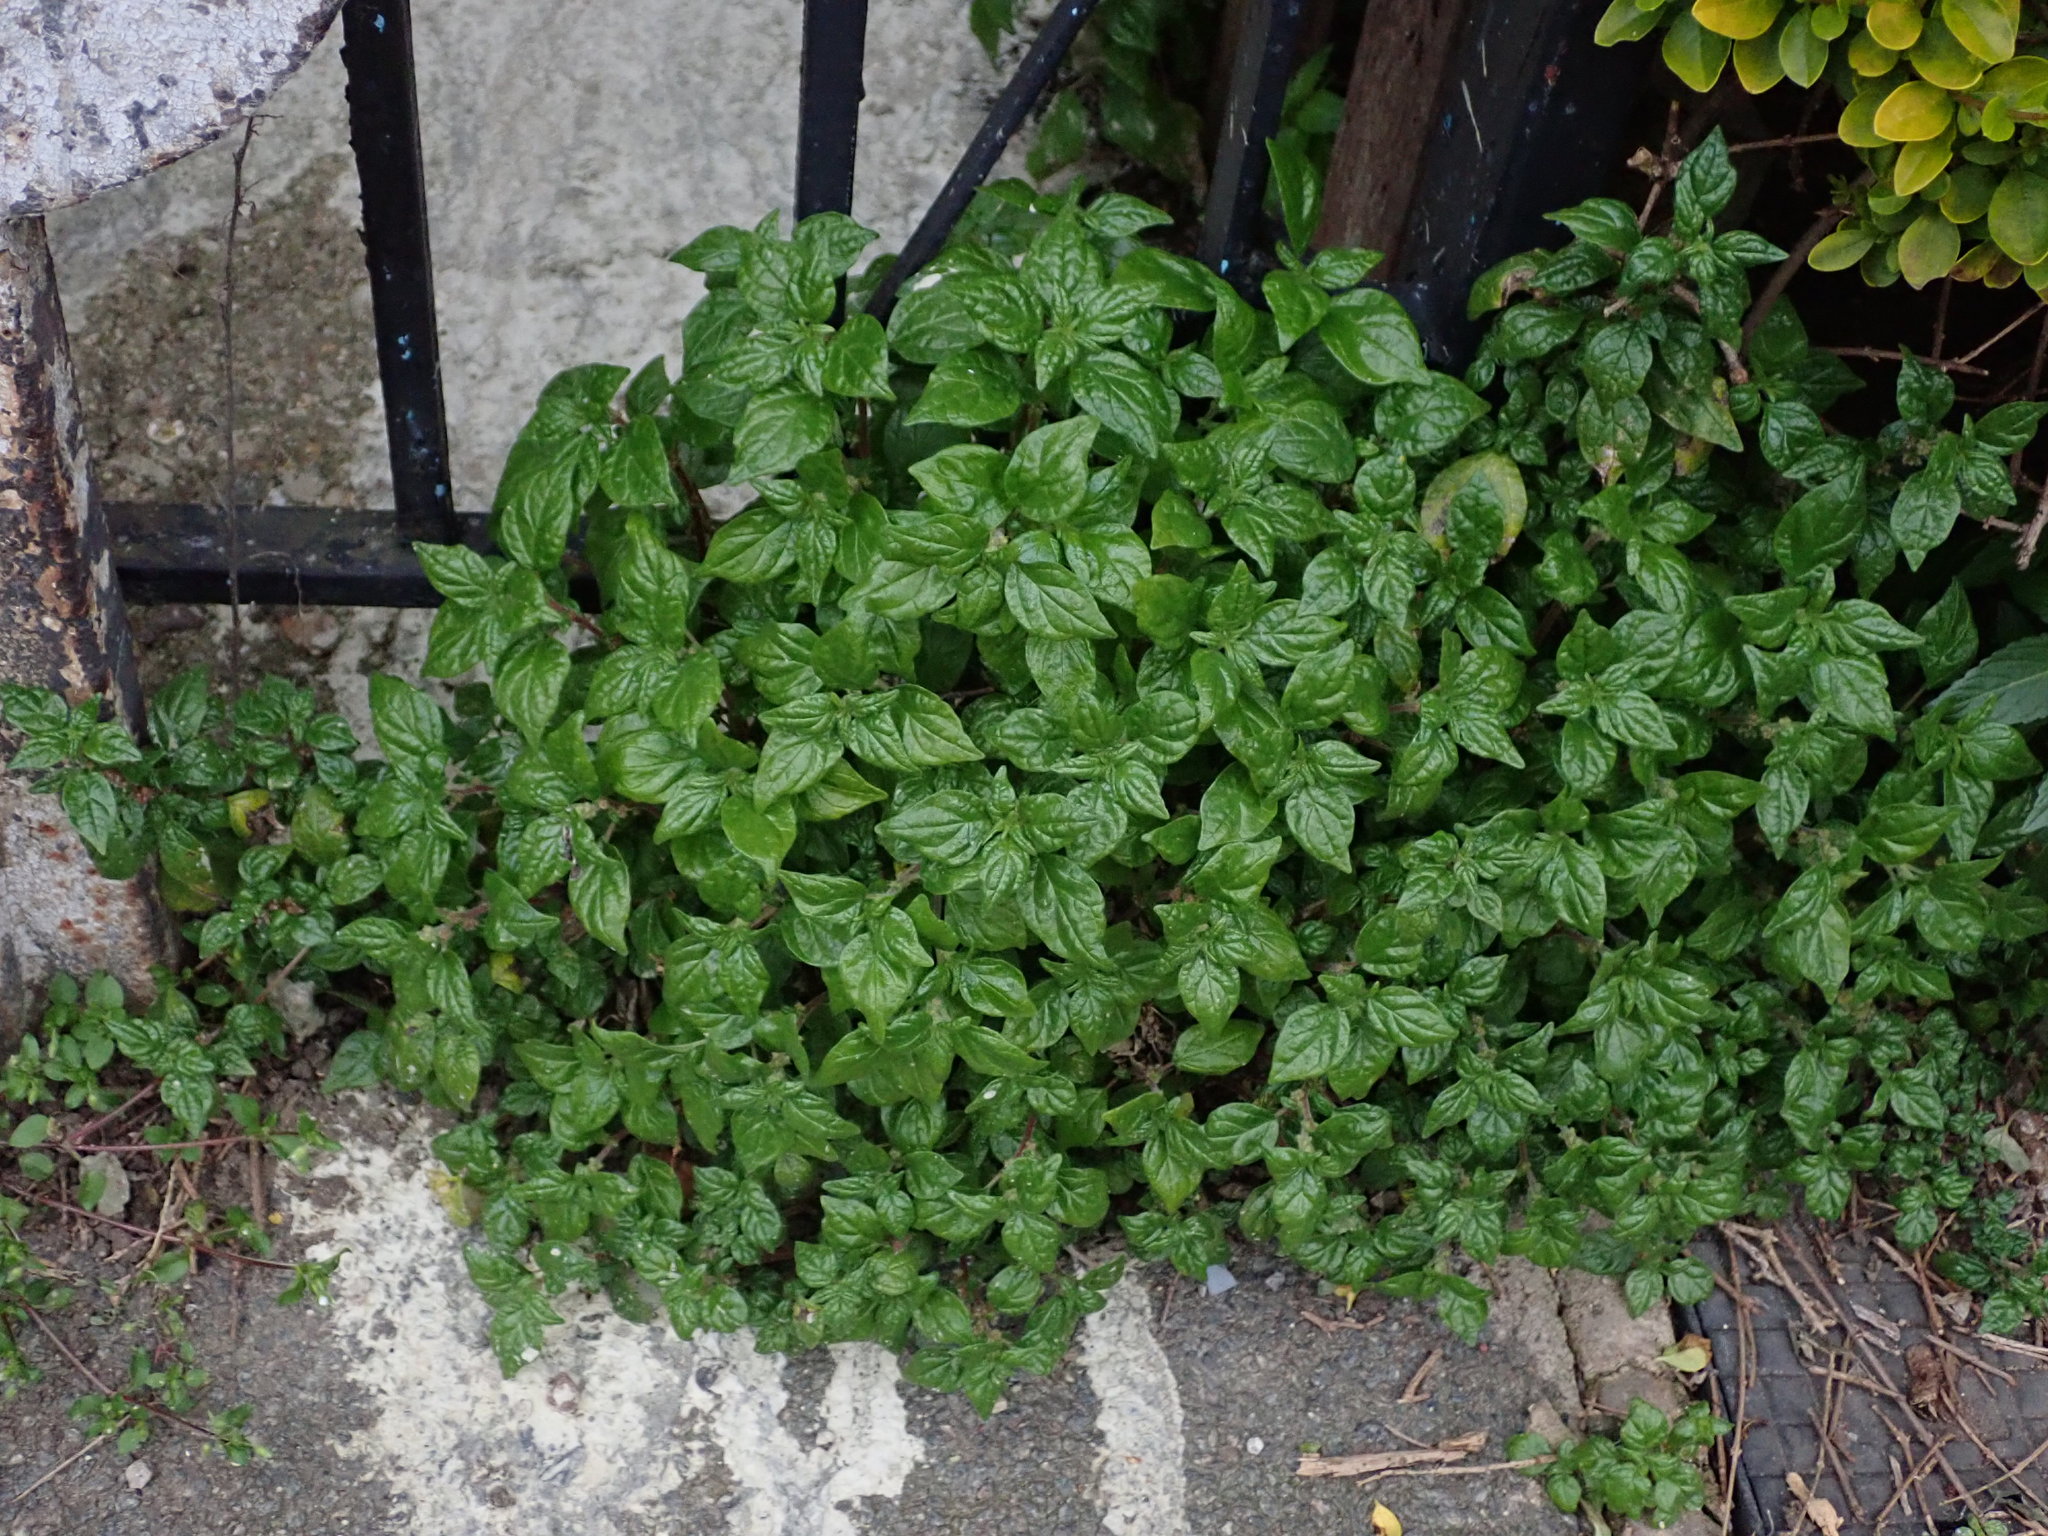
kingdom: Plantae
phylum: Tracheophyta
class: Magnoliopsida
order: Rosales
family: Urticaceae
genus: Parietaria
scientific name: Parietaria judaica
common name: Pellitory-of-the-wall
